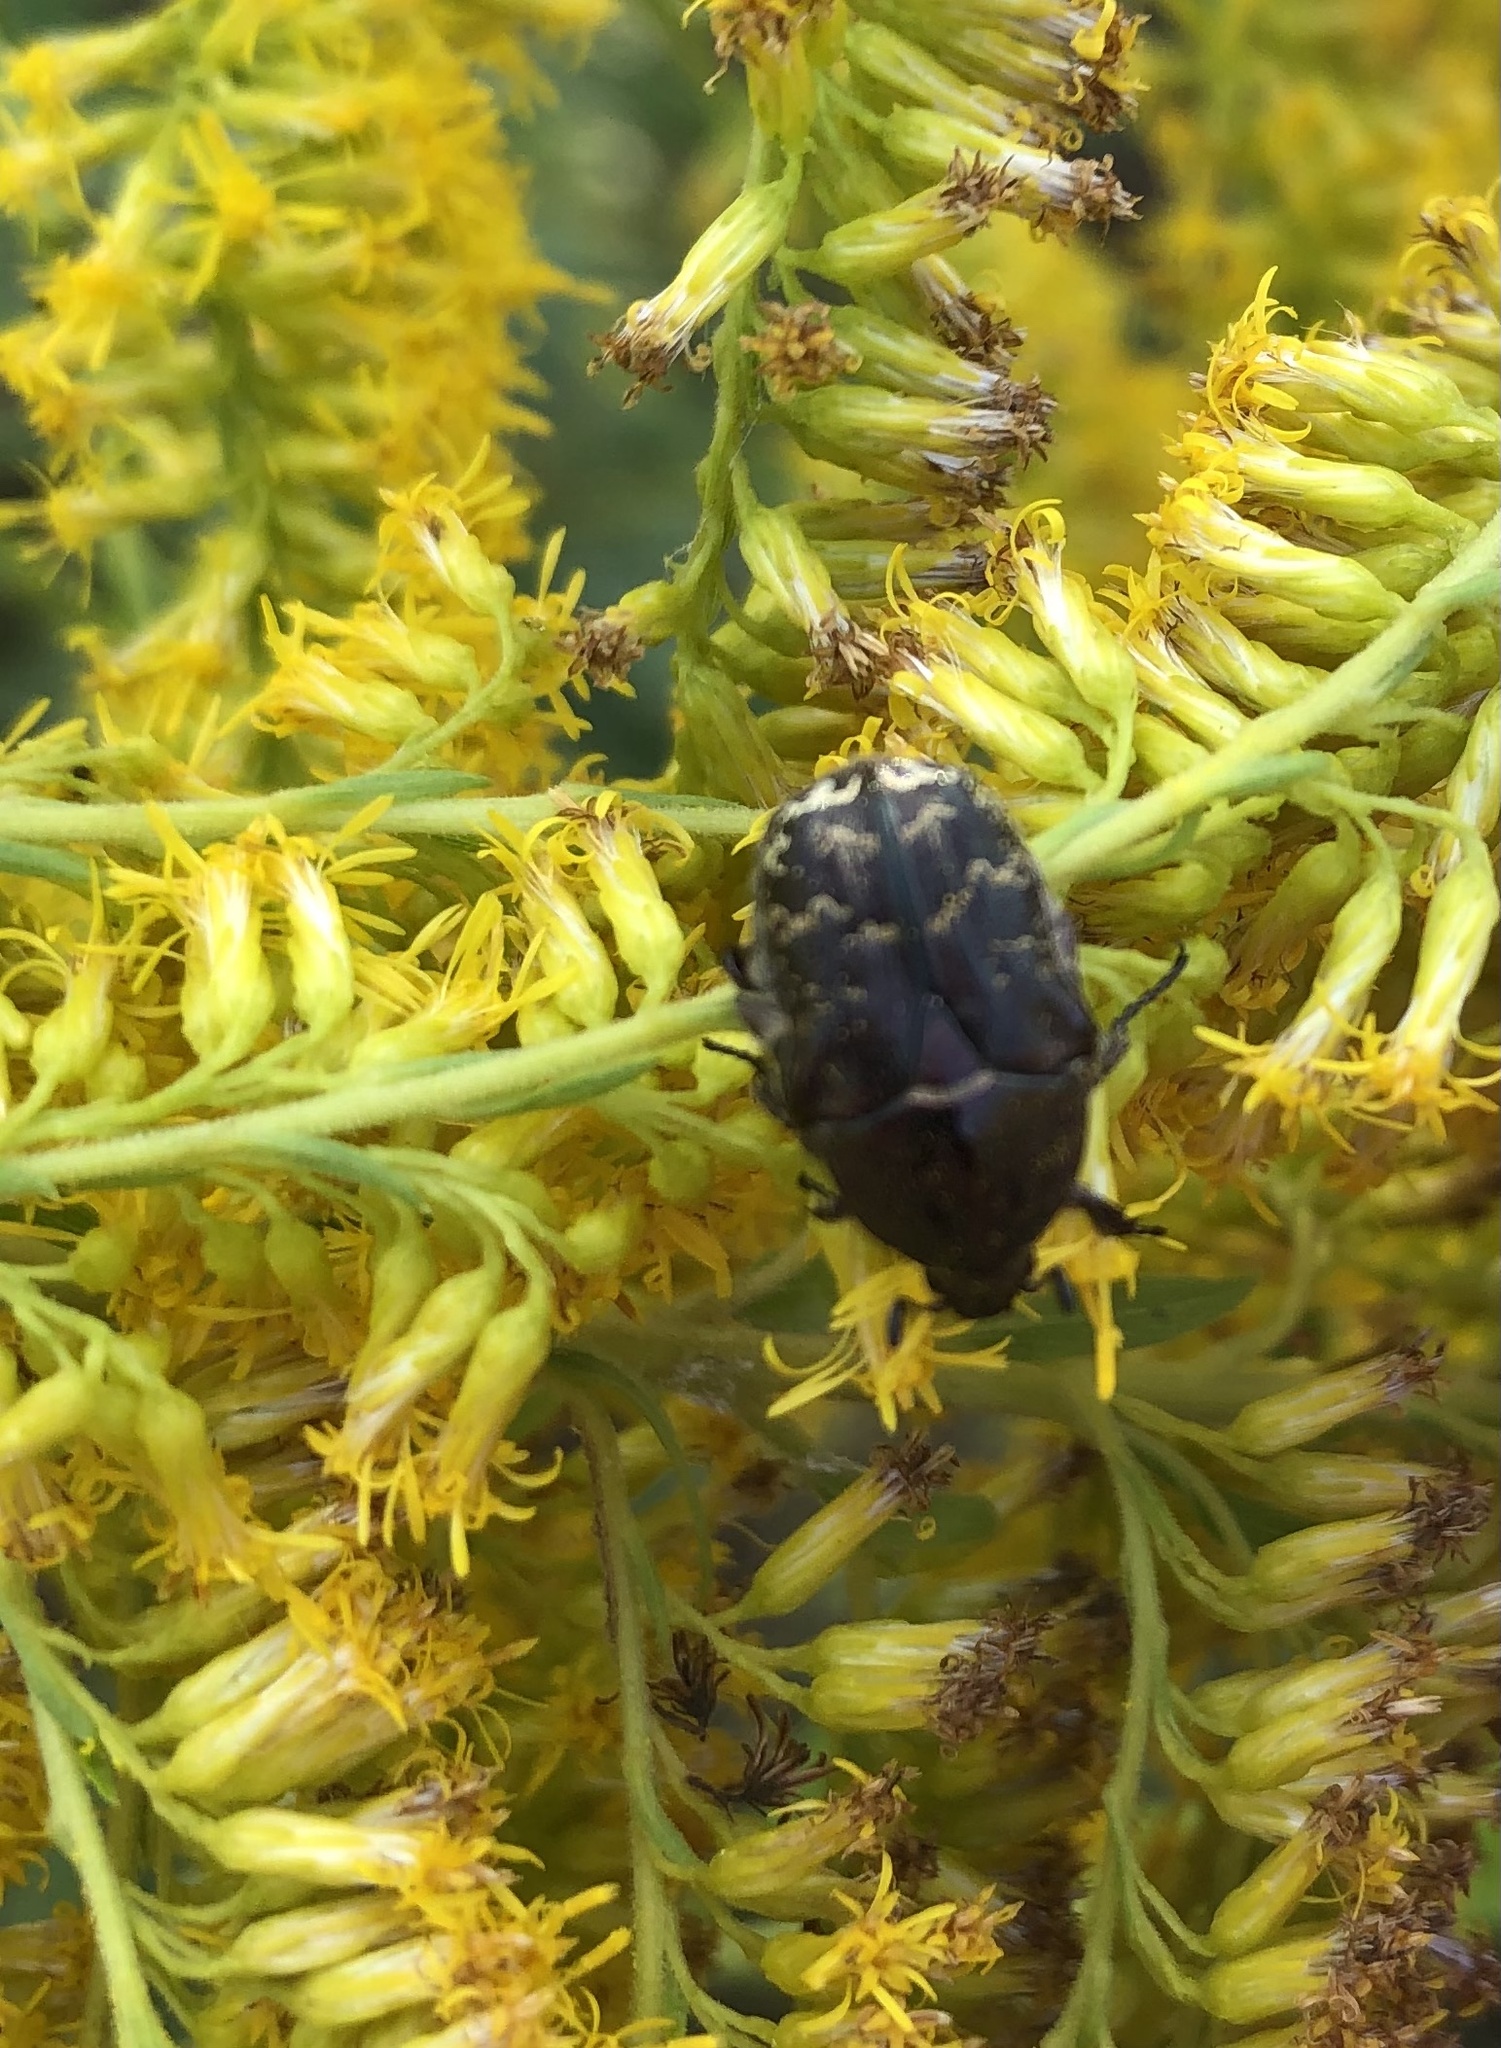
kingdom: Animalia
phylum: Arthropoda
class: Insecta
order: Coleoptera
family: Scarabaeidae
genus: Euphoria
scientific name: Euphoria sepulcralis
